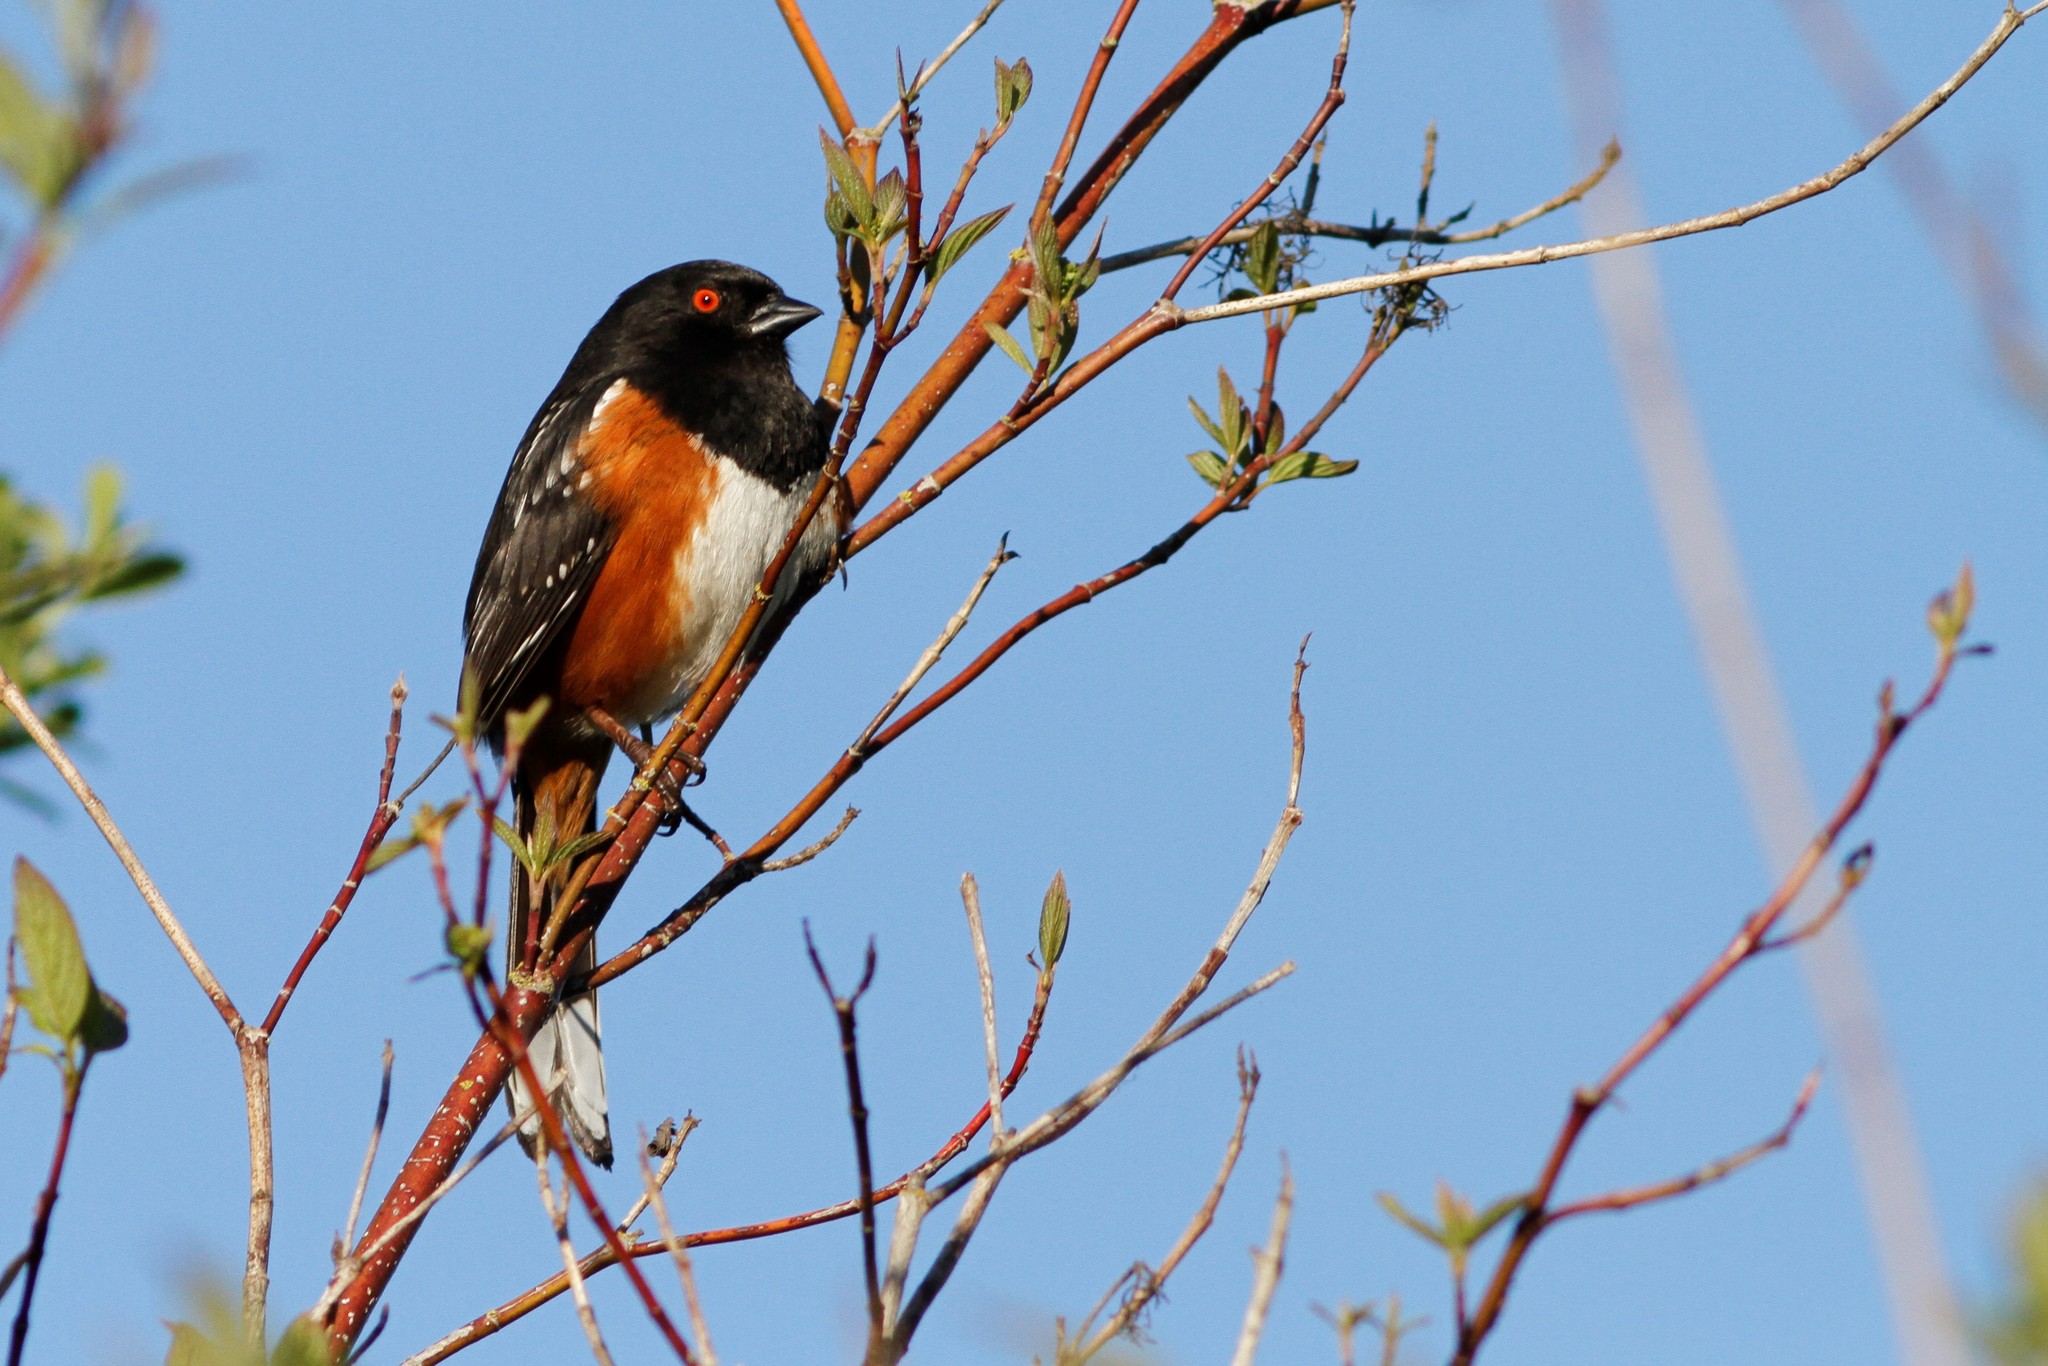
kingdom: Animalia
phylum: Chordata
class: Aves
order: Passeriformes
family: Passerellidae
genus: Pipilo
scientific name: Pipilo maculatus
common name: Spotted towhee
